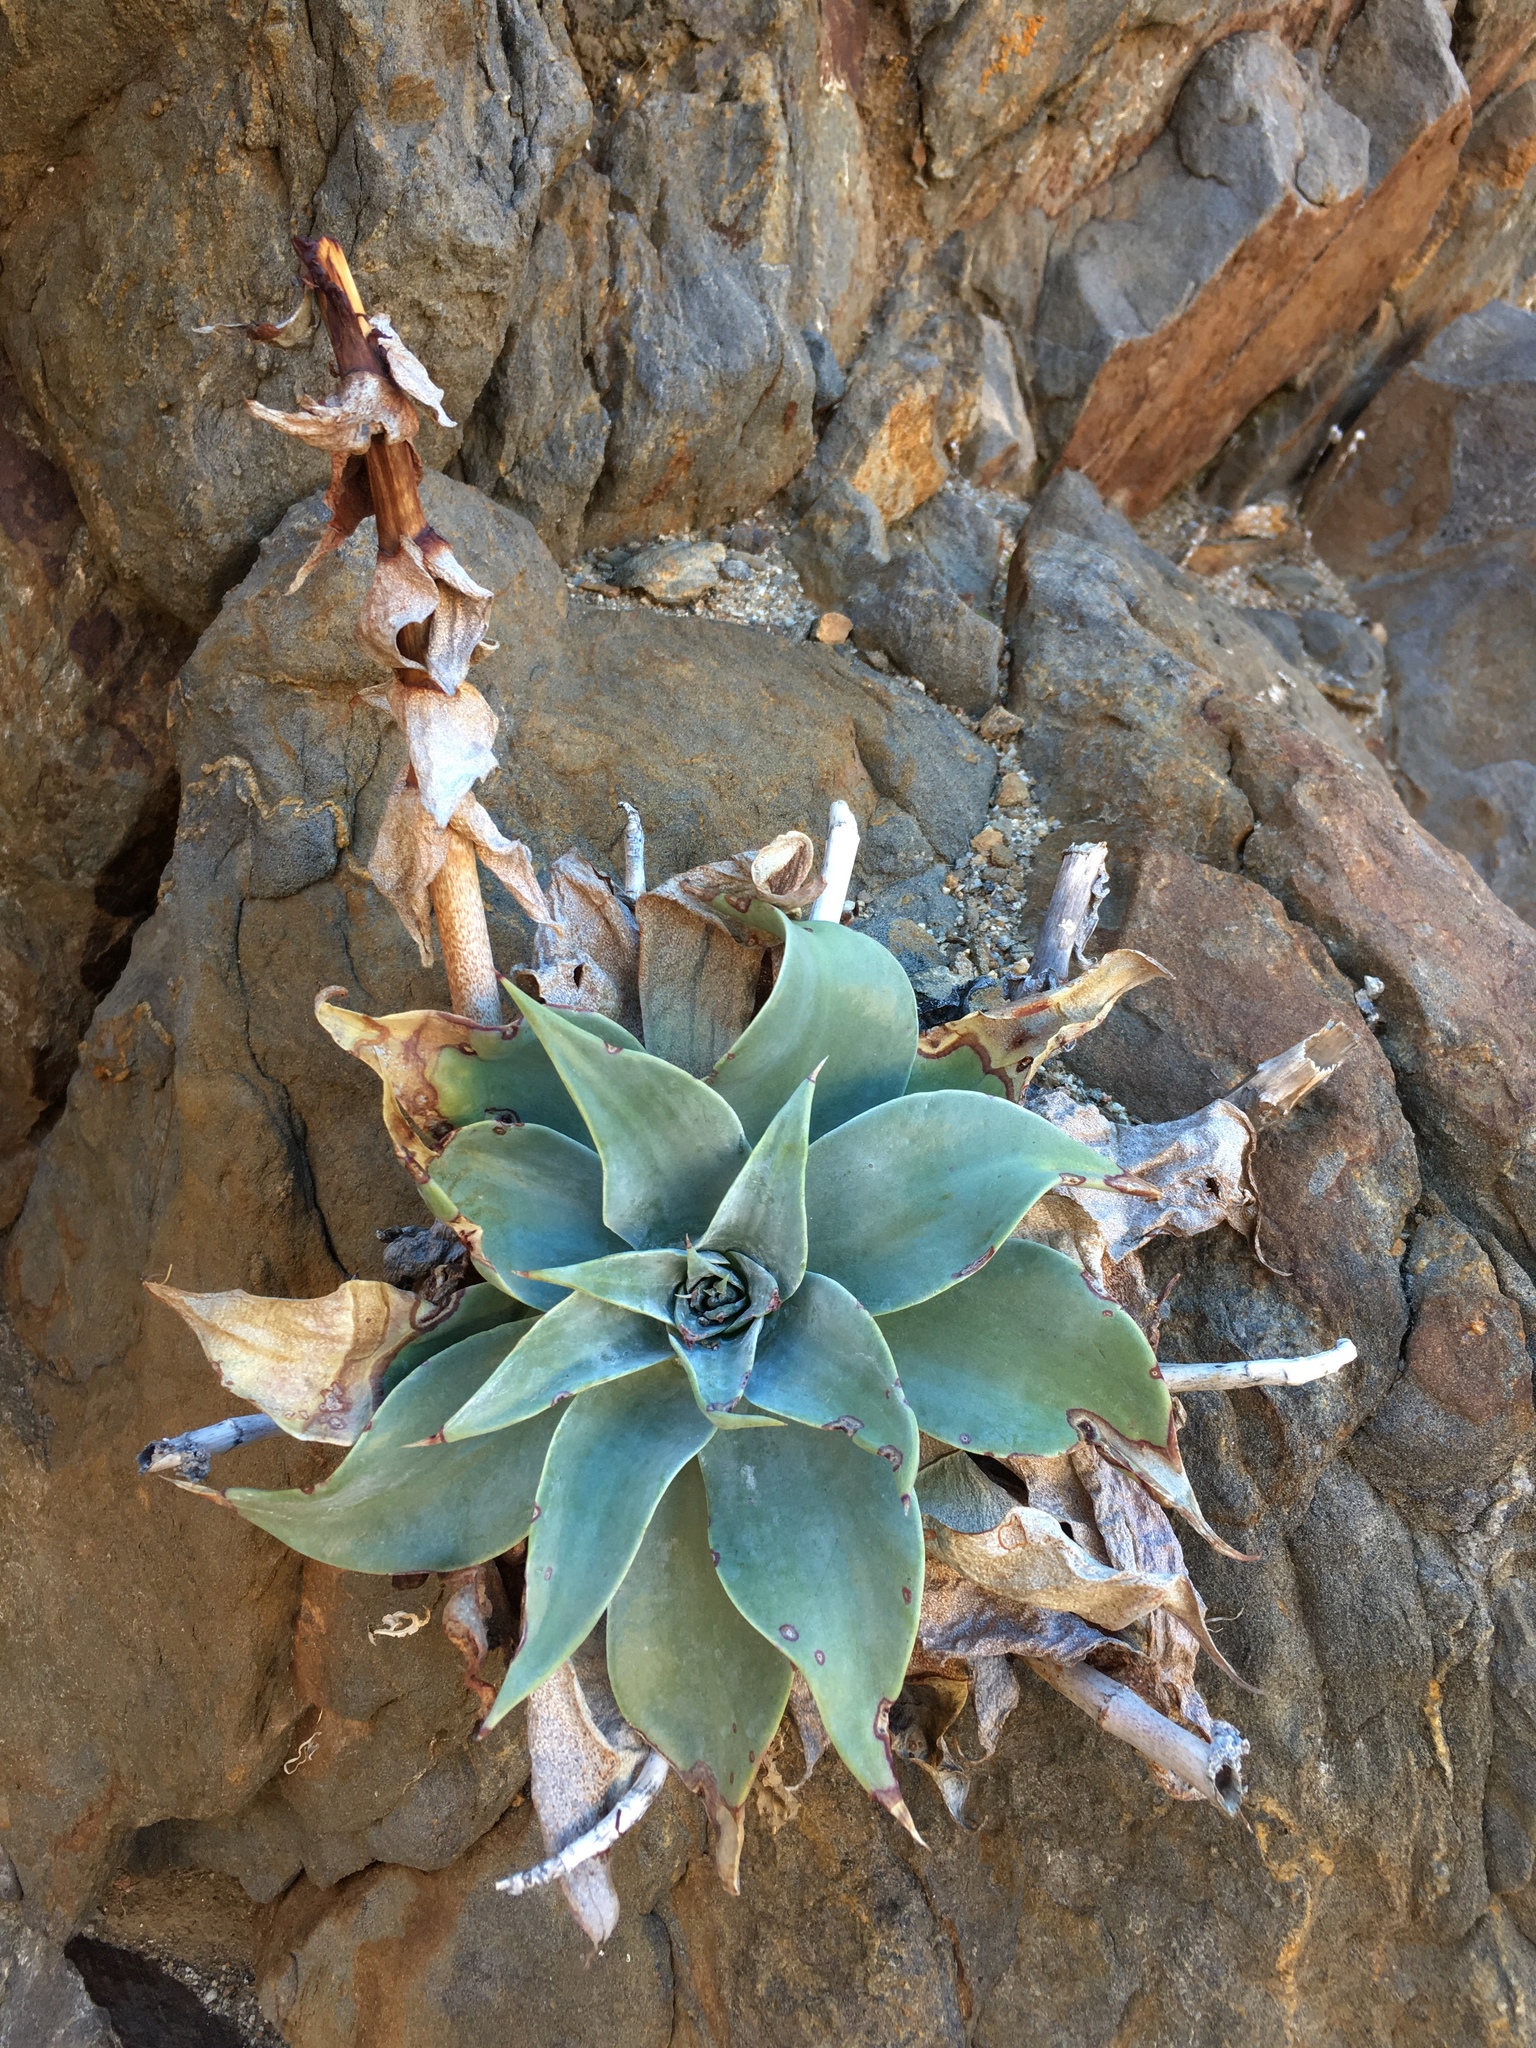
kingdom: Plantae
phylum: Tracheophyta
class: Magnoliopsida
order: Saxifragales
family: Crassulaceae
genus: Dudleya
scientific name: Dudleya arizonica
